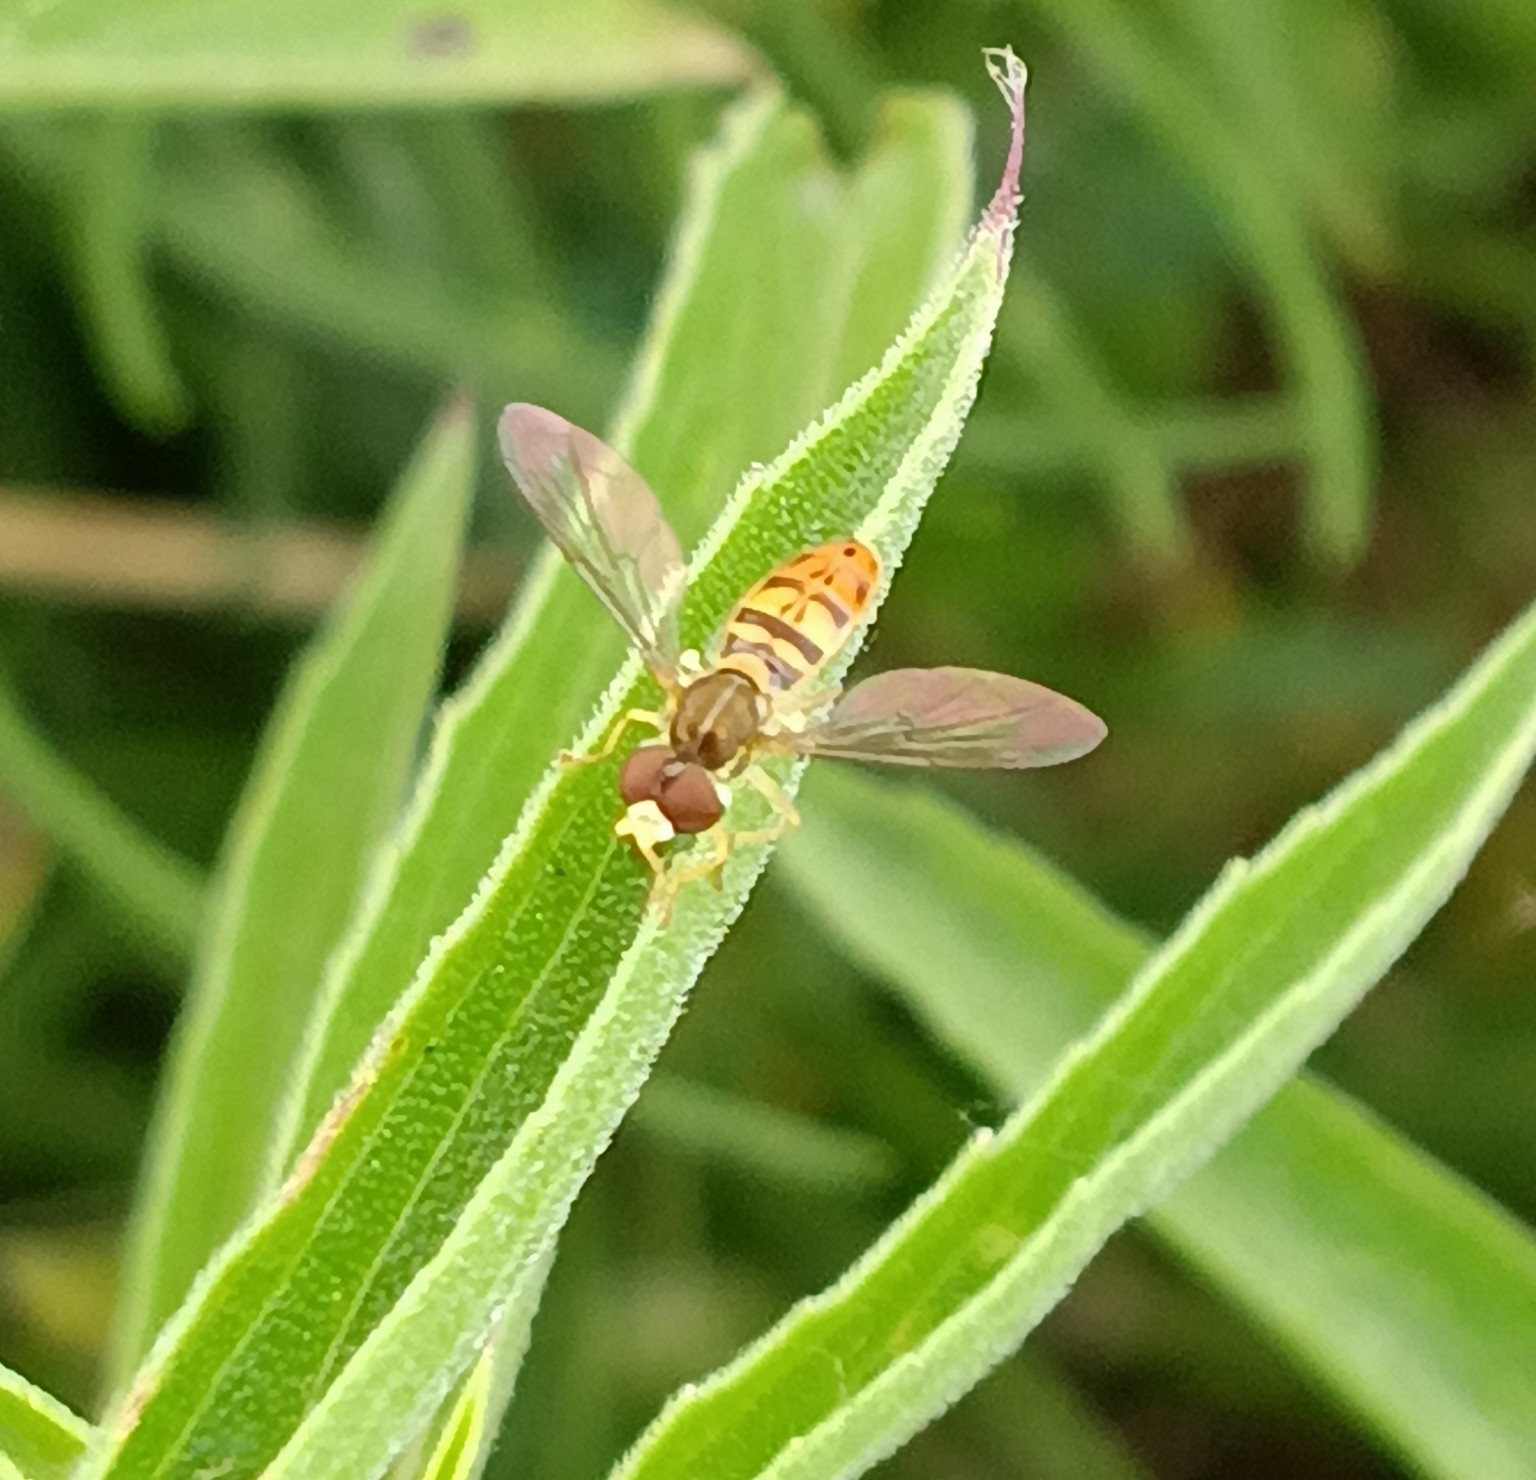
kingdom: Animalia
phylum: Arthropoda
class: Insecta
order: Diptera
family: Syrphidae
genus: Toxomerus
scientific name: Toxomerus marginatus
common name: Syrphid fly
